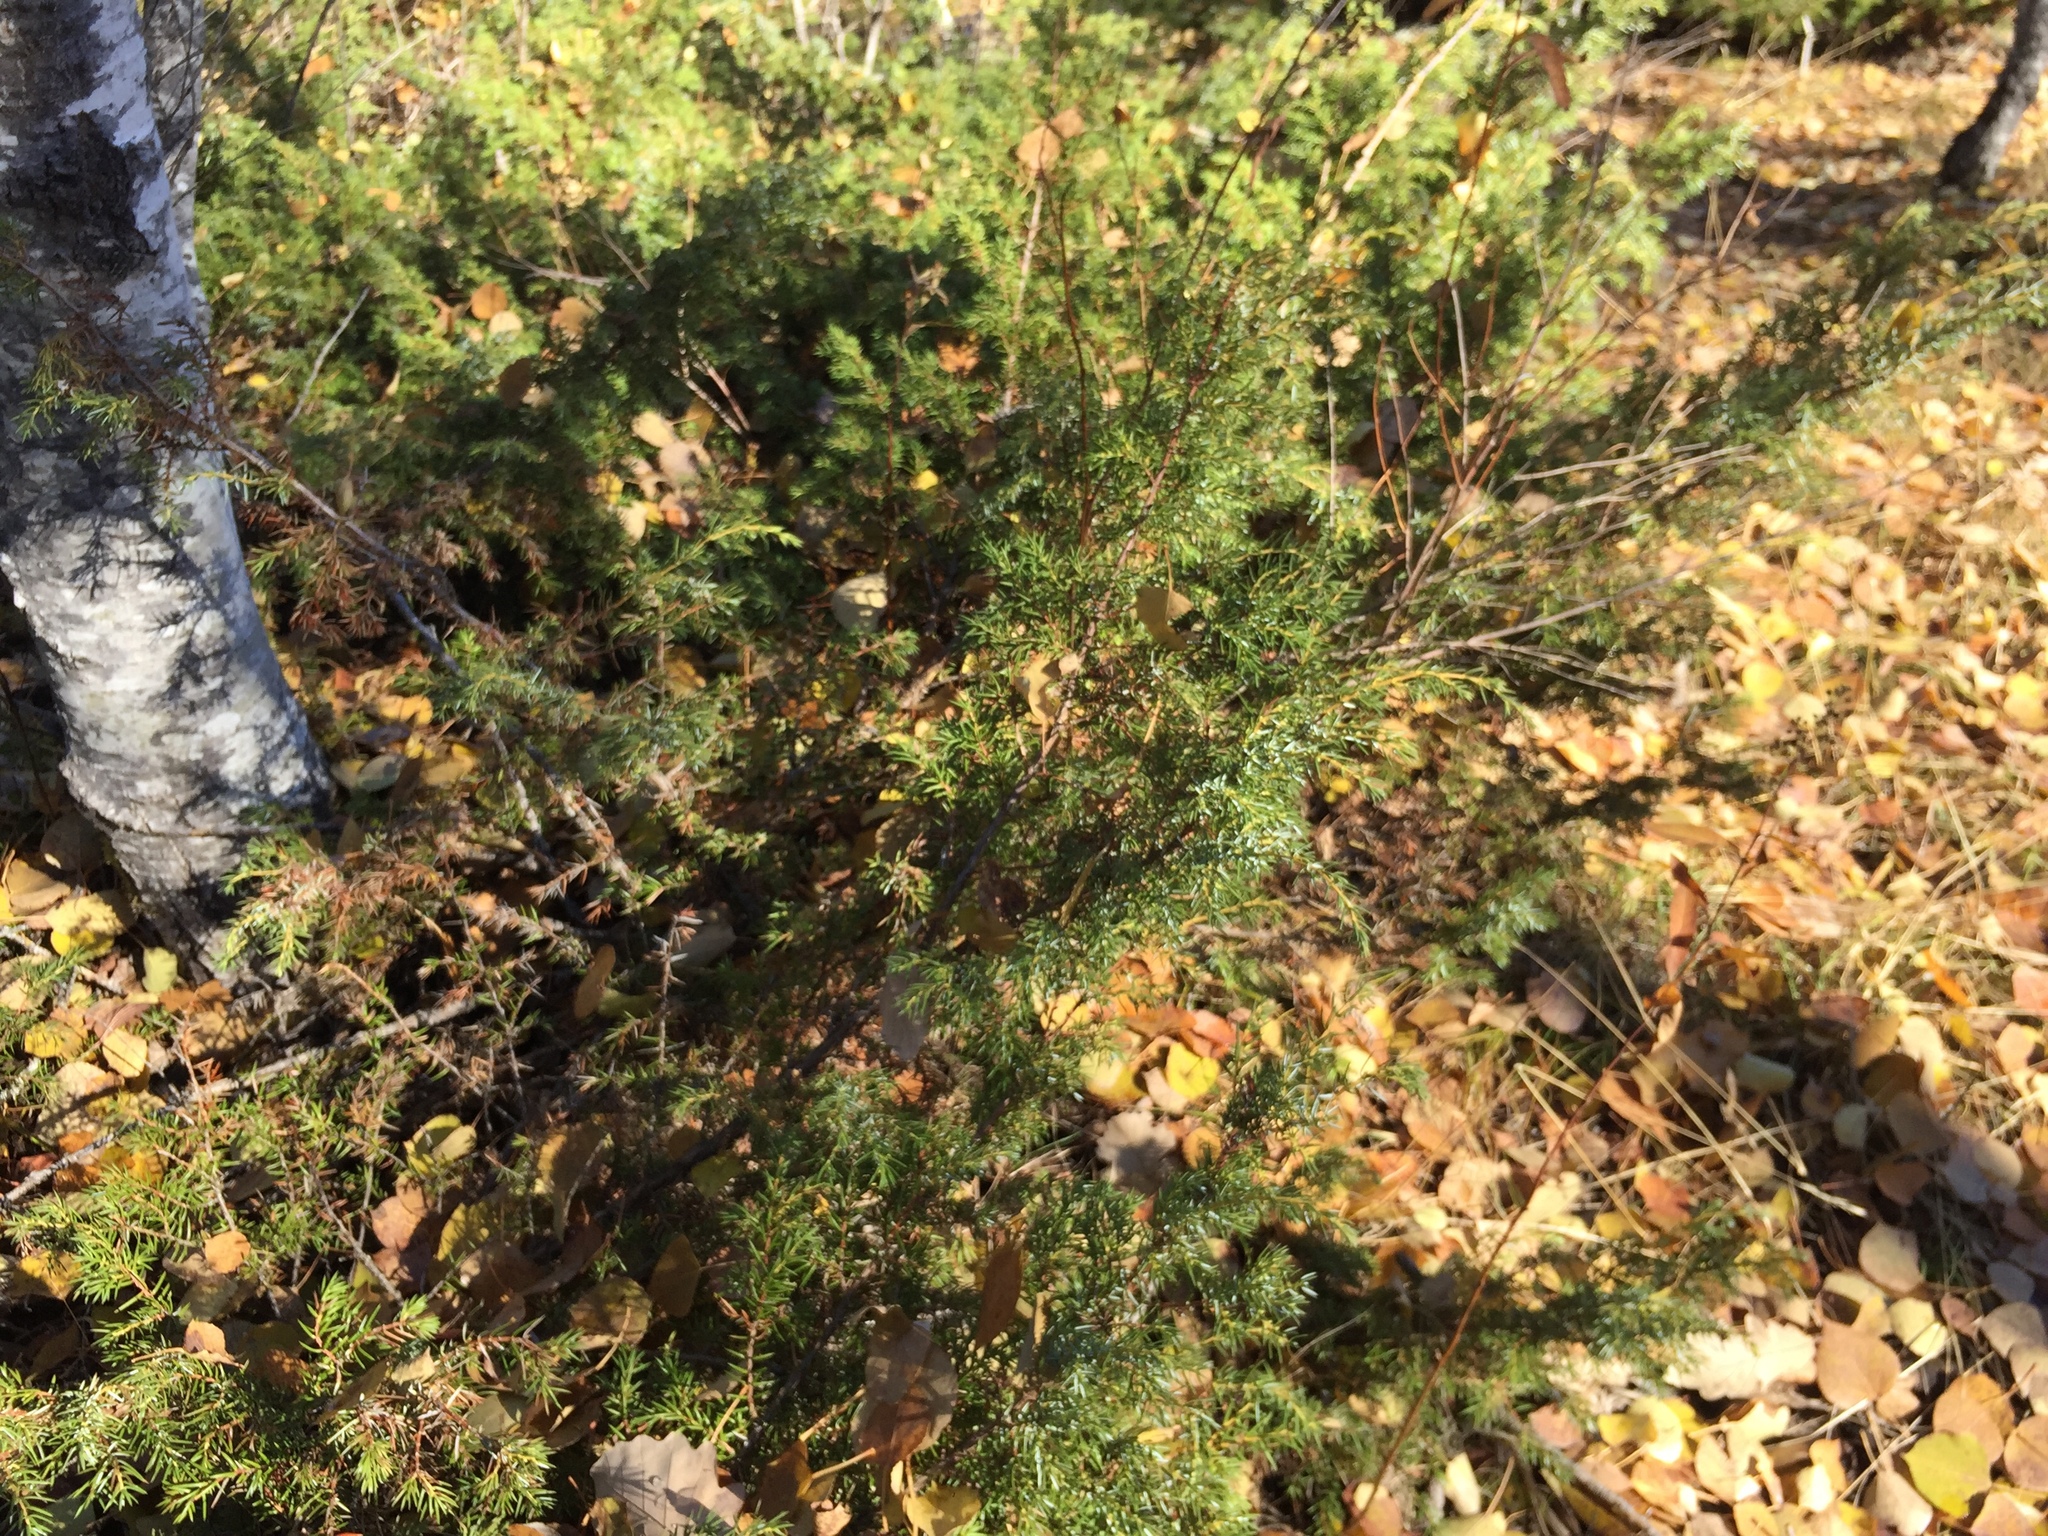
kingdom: Plantae
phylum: Tracheophyta
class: Pinopsida
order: Pinales
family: Cupressaceae
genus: Juniperus
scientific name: Juniperus communis
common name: Common juniper
